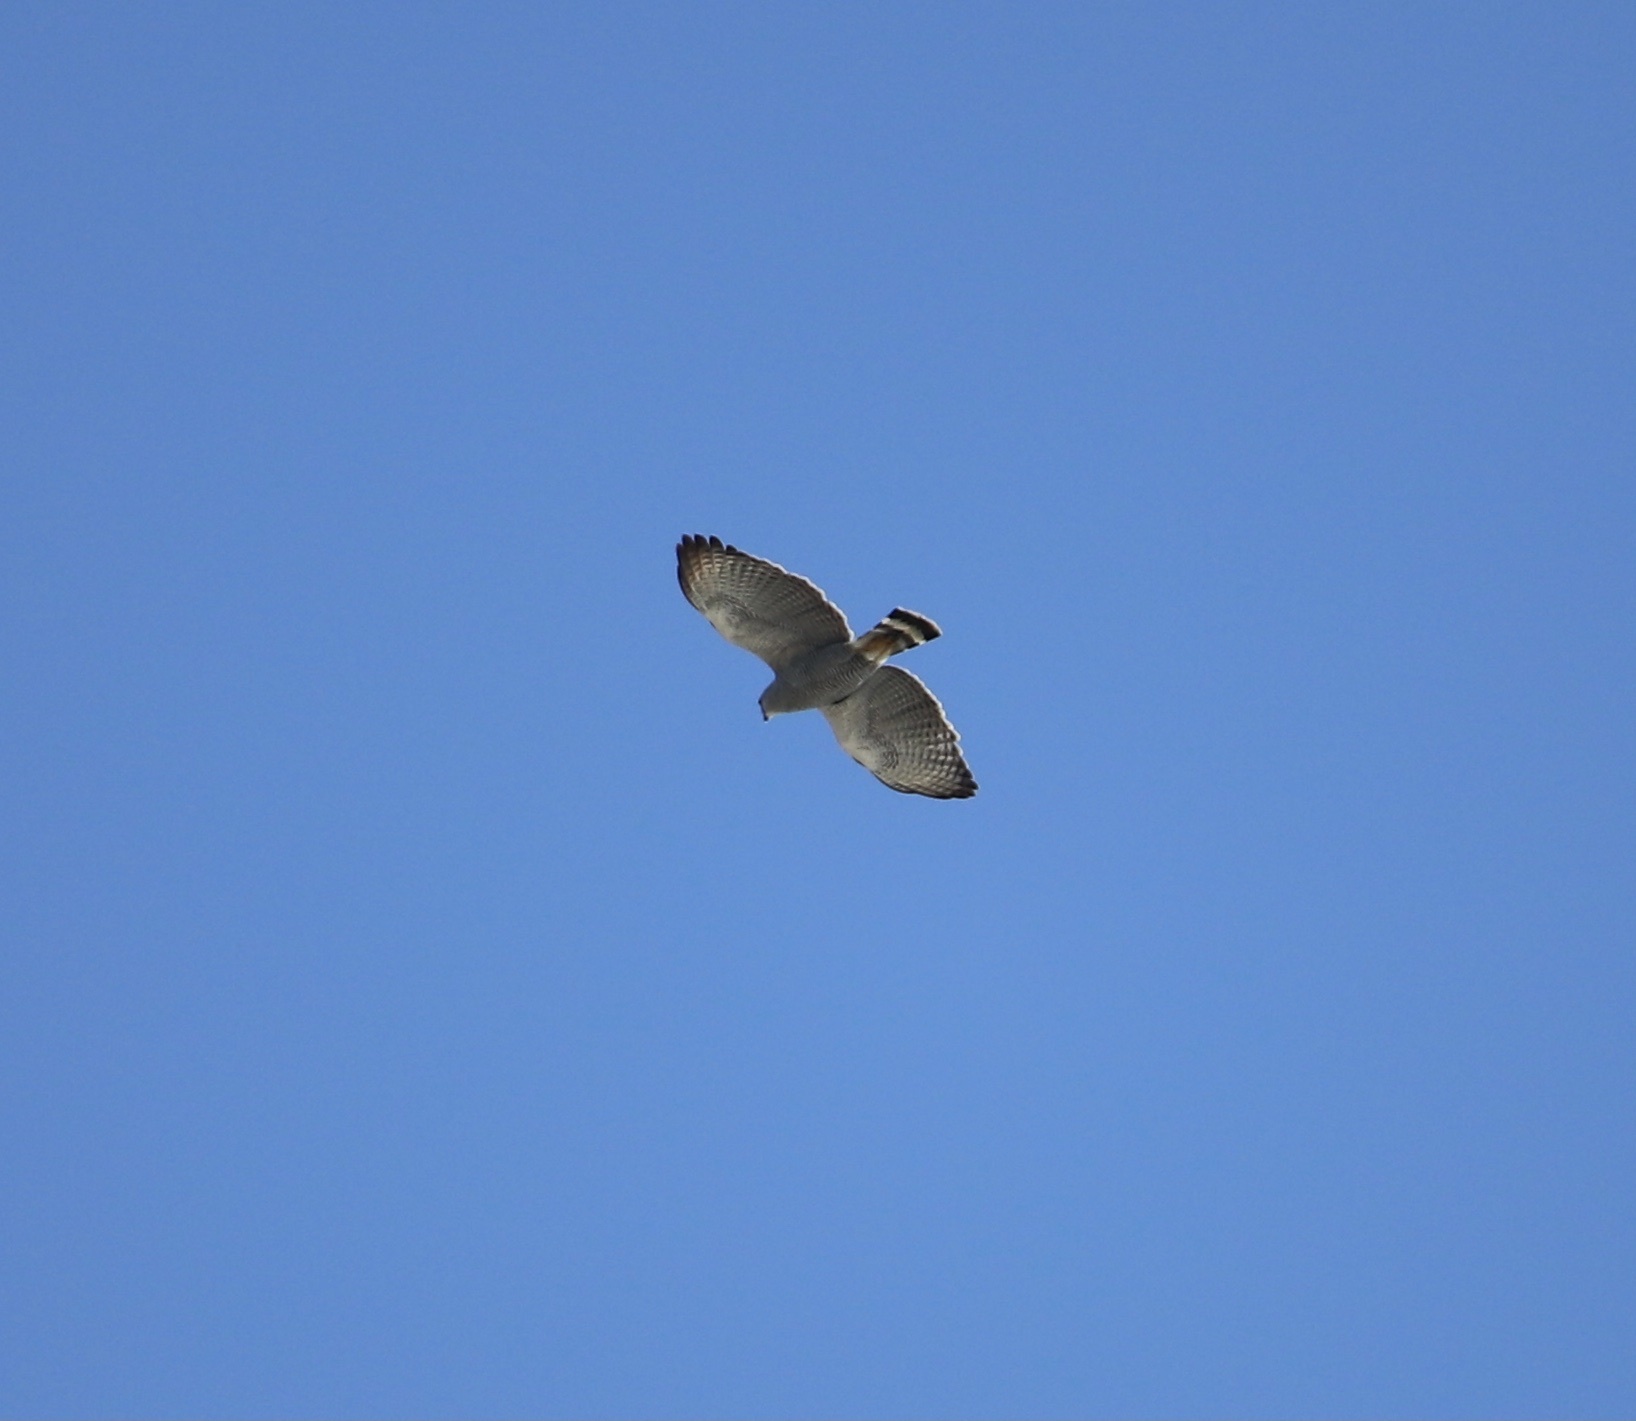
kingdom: Animalia
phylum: Chordata
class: Aves
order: Accipitriformes
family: Accipitridae
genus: Buteo
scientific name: Buteo nitidus
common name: Grey-lined hawk
